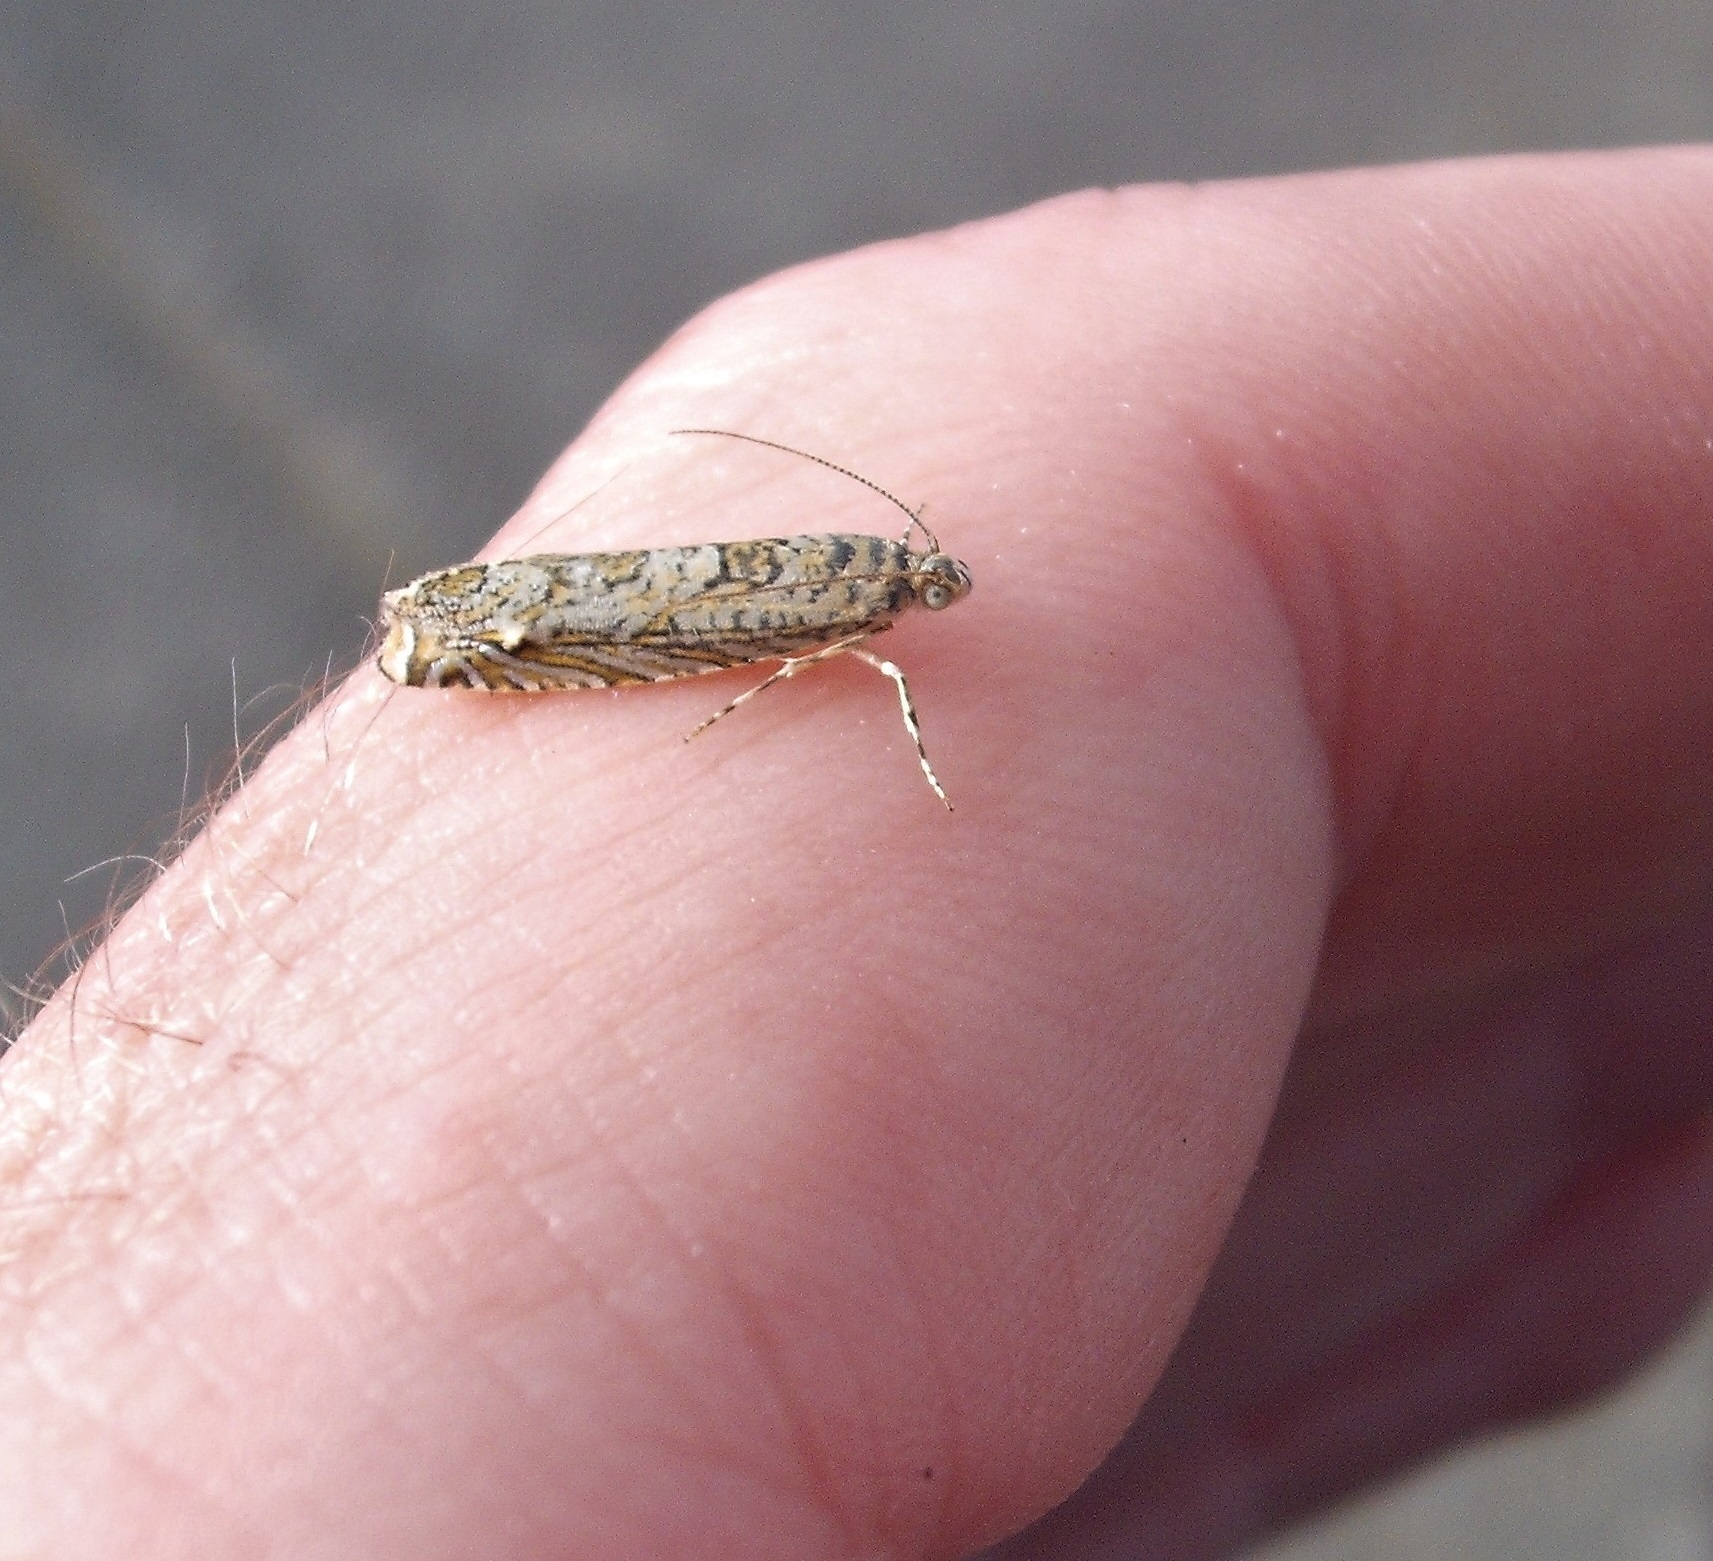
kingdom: Animalia
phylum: Arthropoda
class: Insecta
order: Lepidoptera
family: Plutellidae
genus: Doxophyrtis
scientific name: Doxophyrtis hydrocosma
